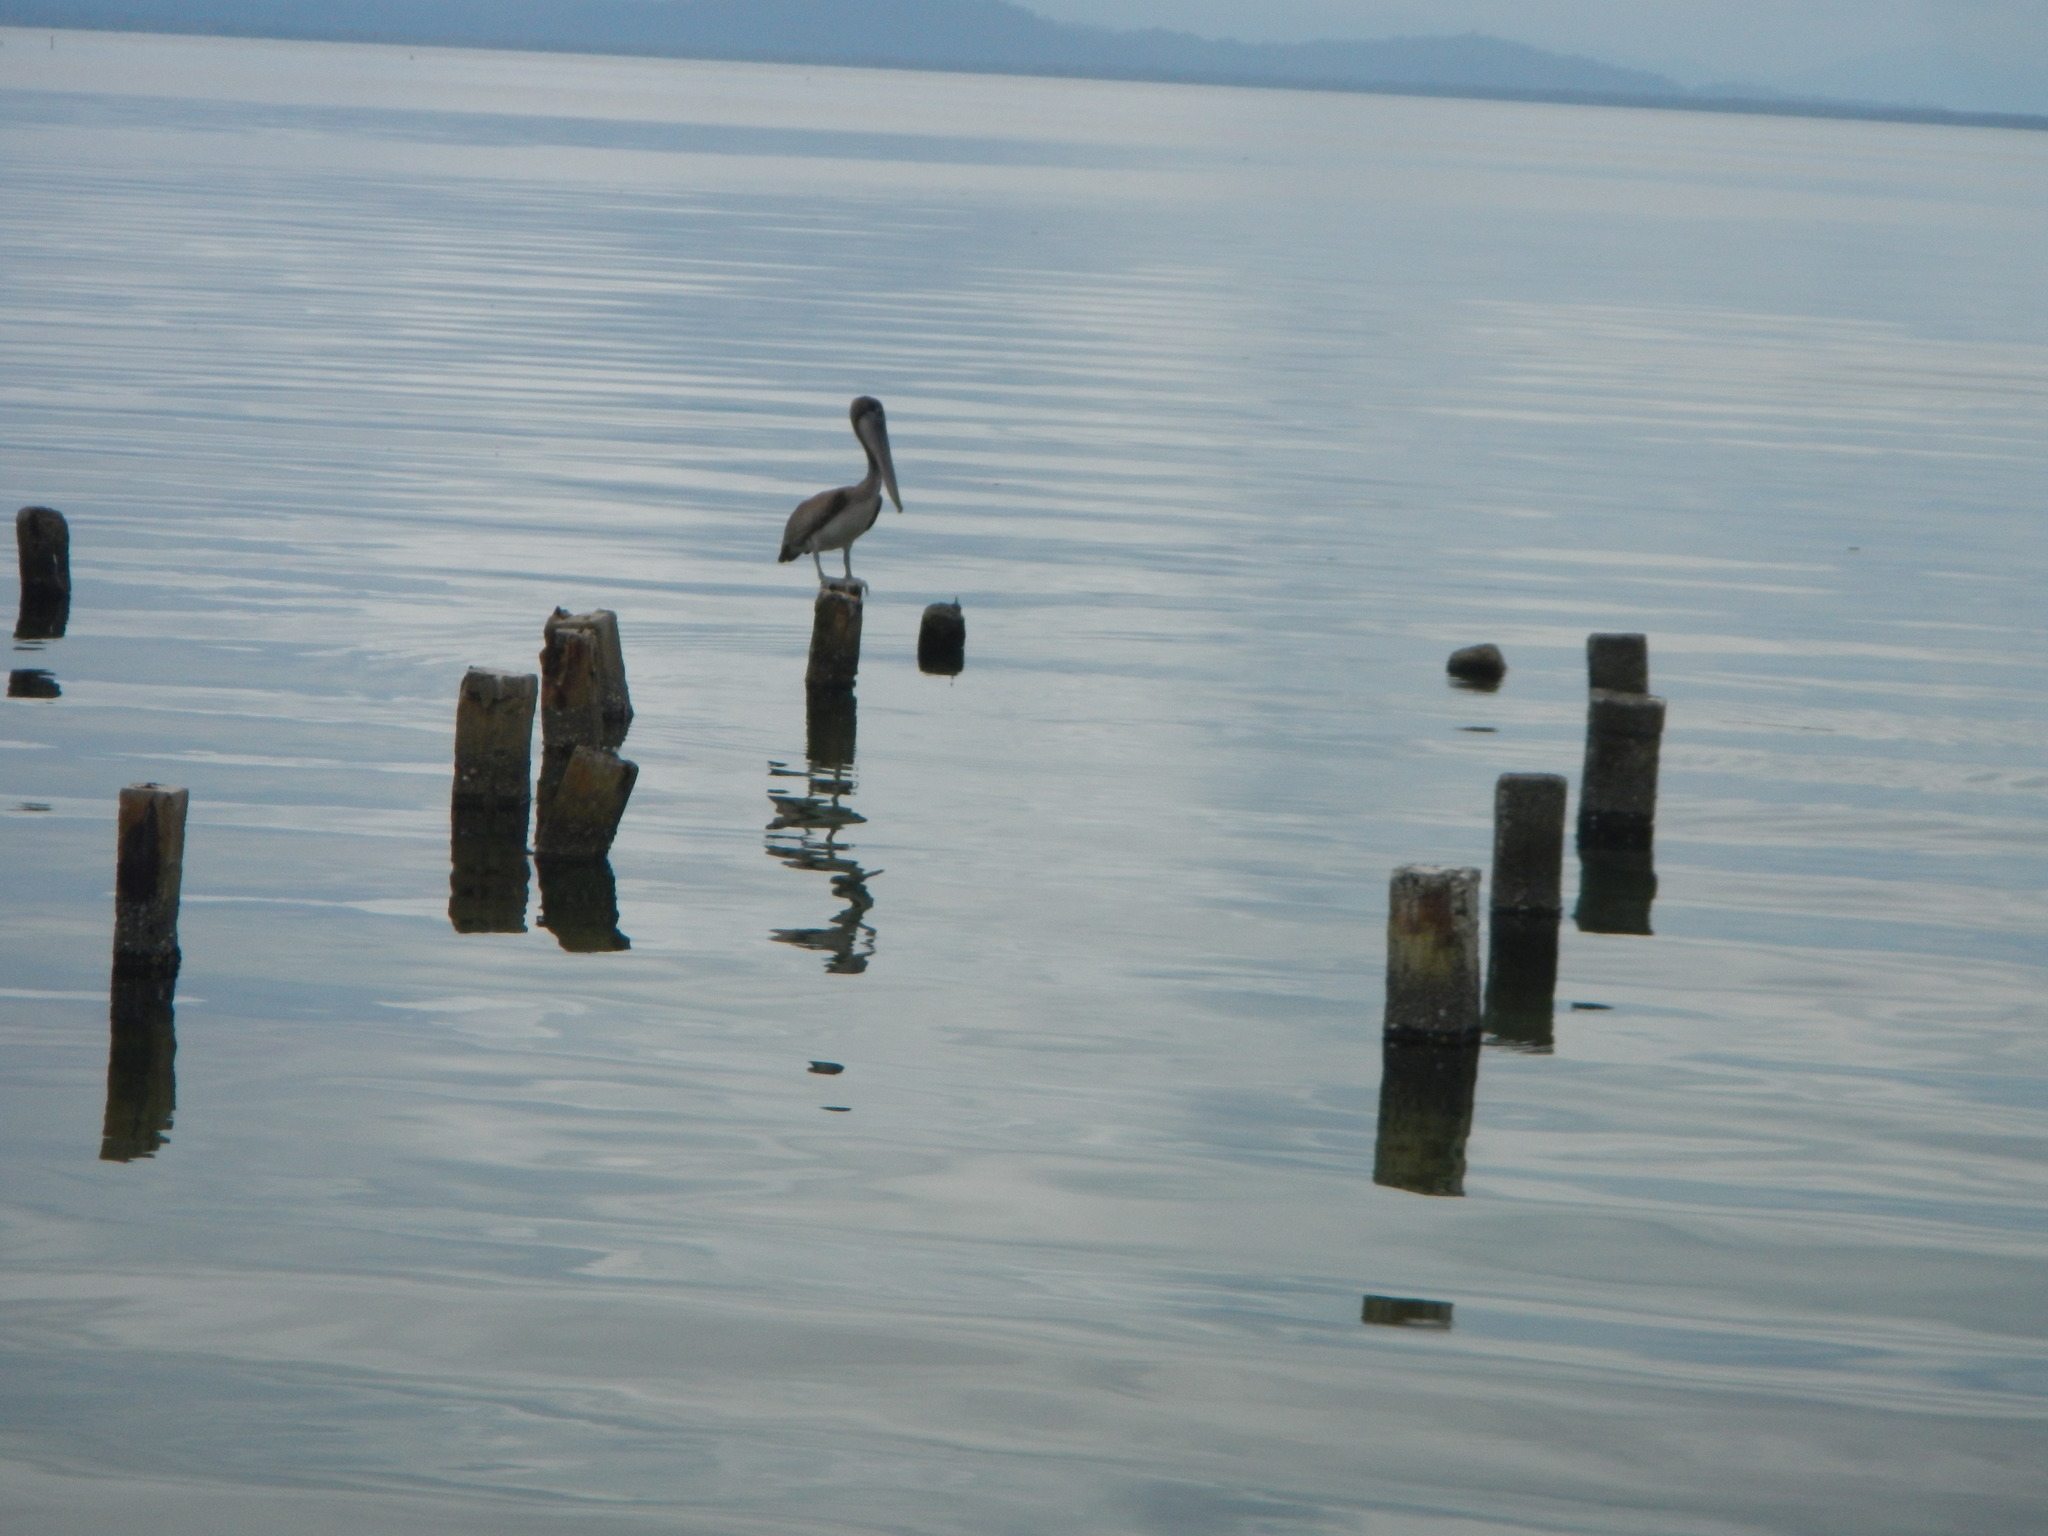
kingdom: Animalia
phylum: Chordata
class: Aves
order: Pelecaniformes
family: Pelecanidae
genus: Pelecanus
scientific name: Pelecanus occidentalis
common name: Brown pelican
